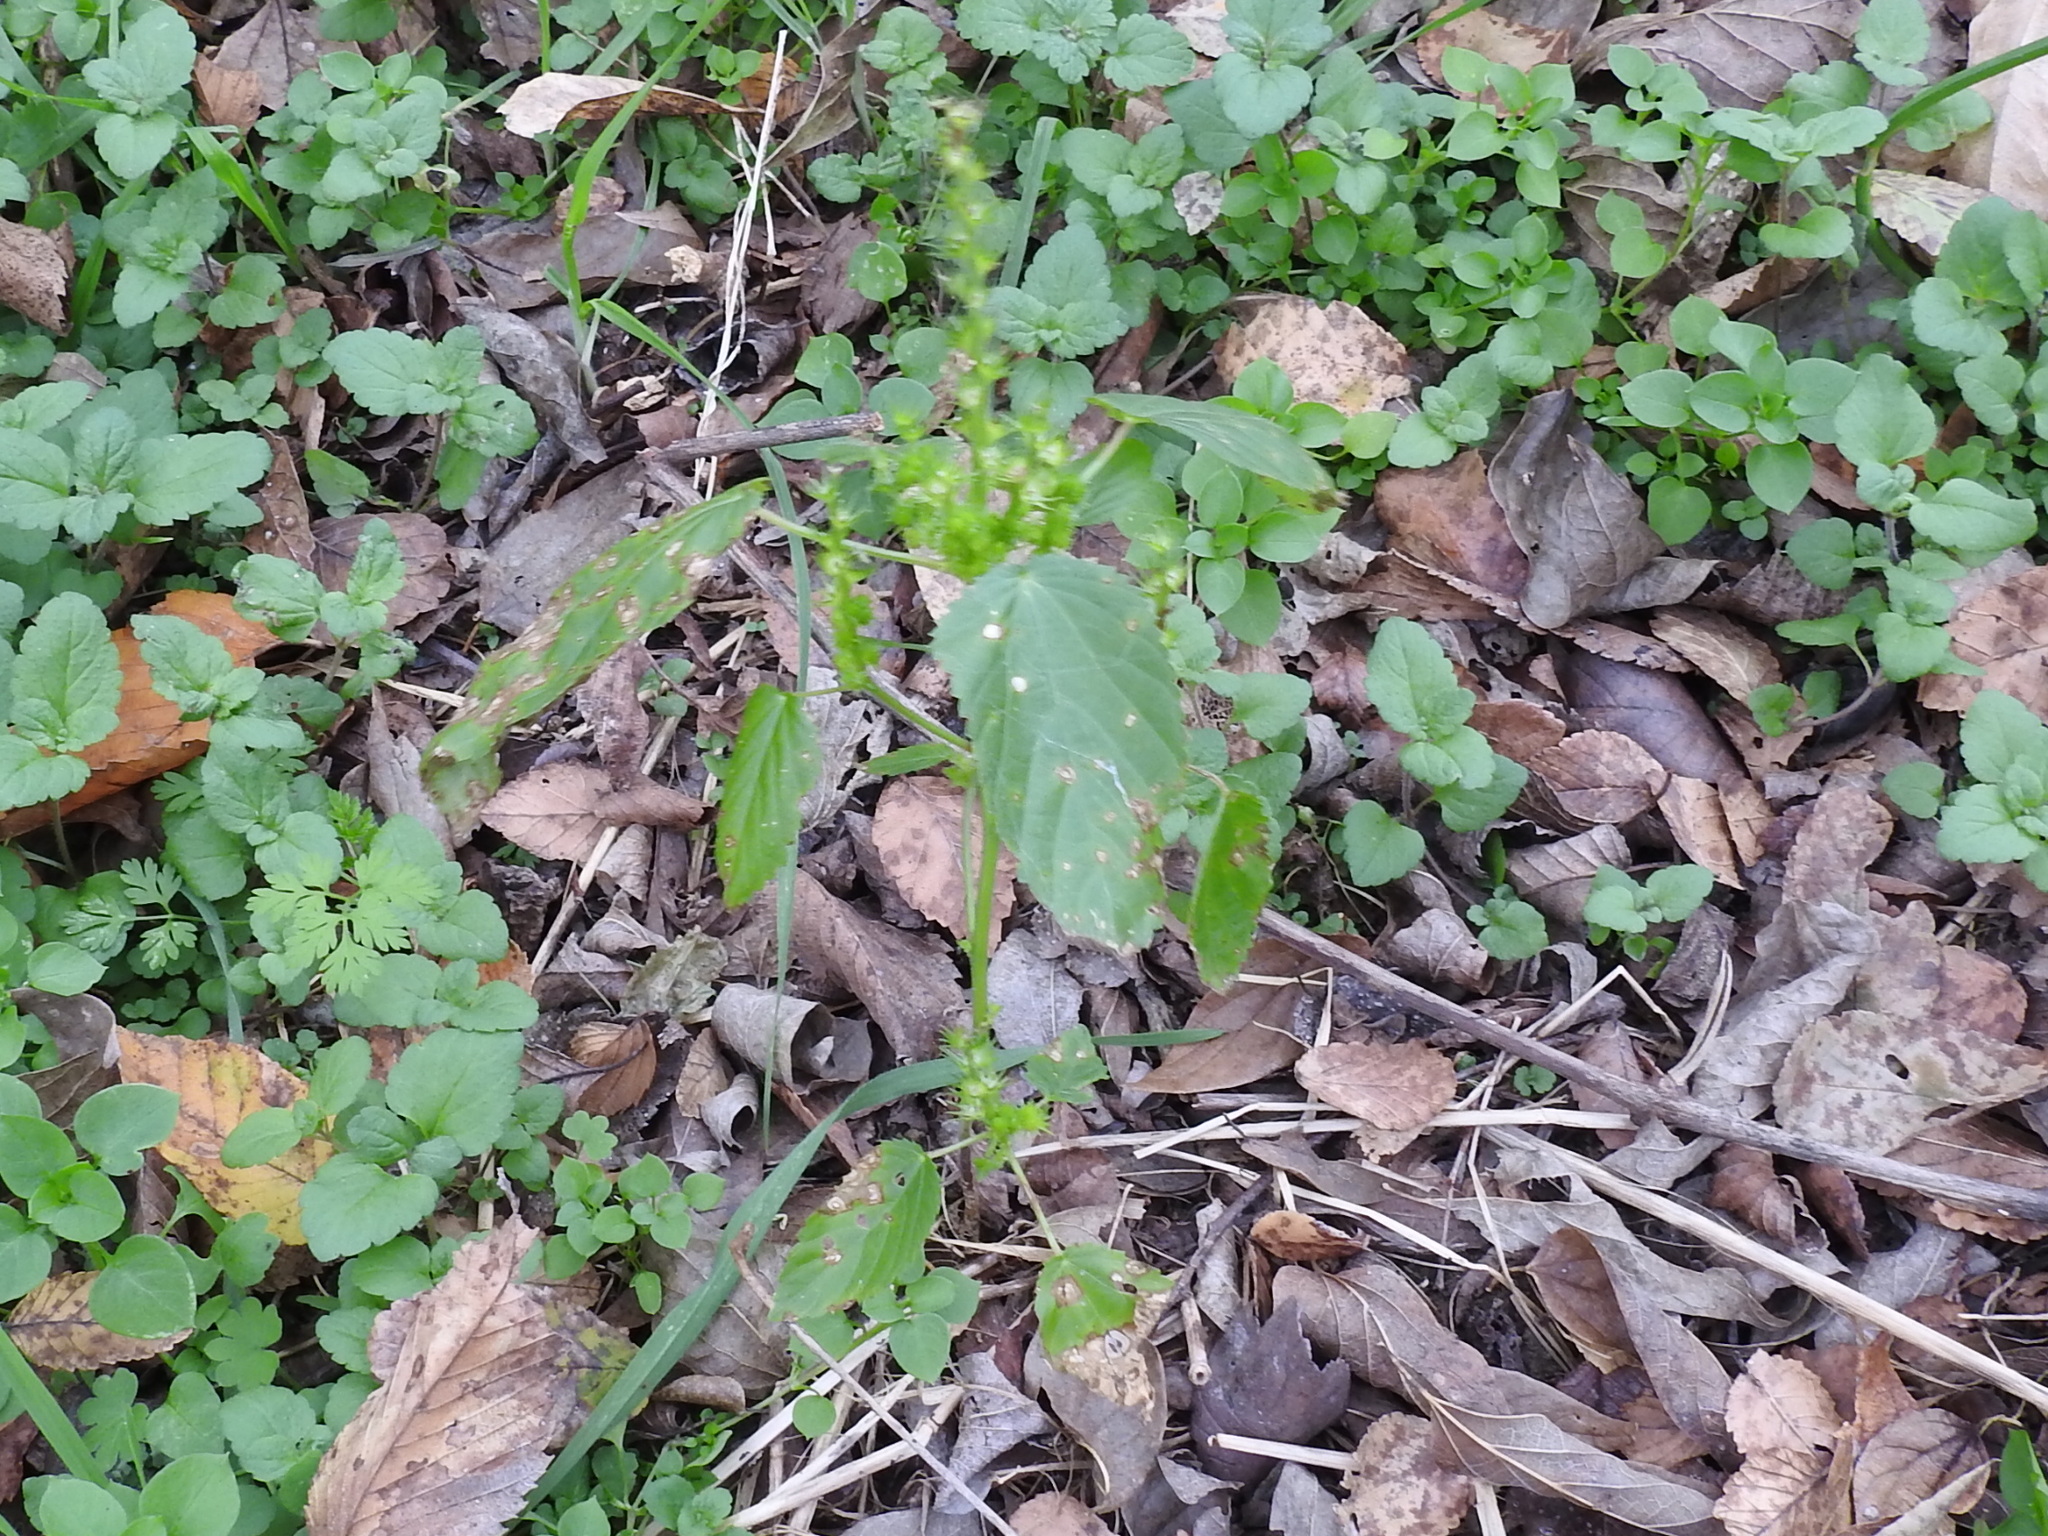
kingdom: Plantae
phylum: Tracheophyta
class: Magnoliopsida
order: Malpighiales
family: Euphorbiaceae
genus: Acalypha
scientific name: Acalypha ostryifolia
